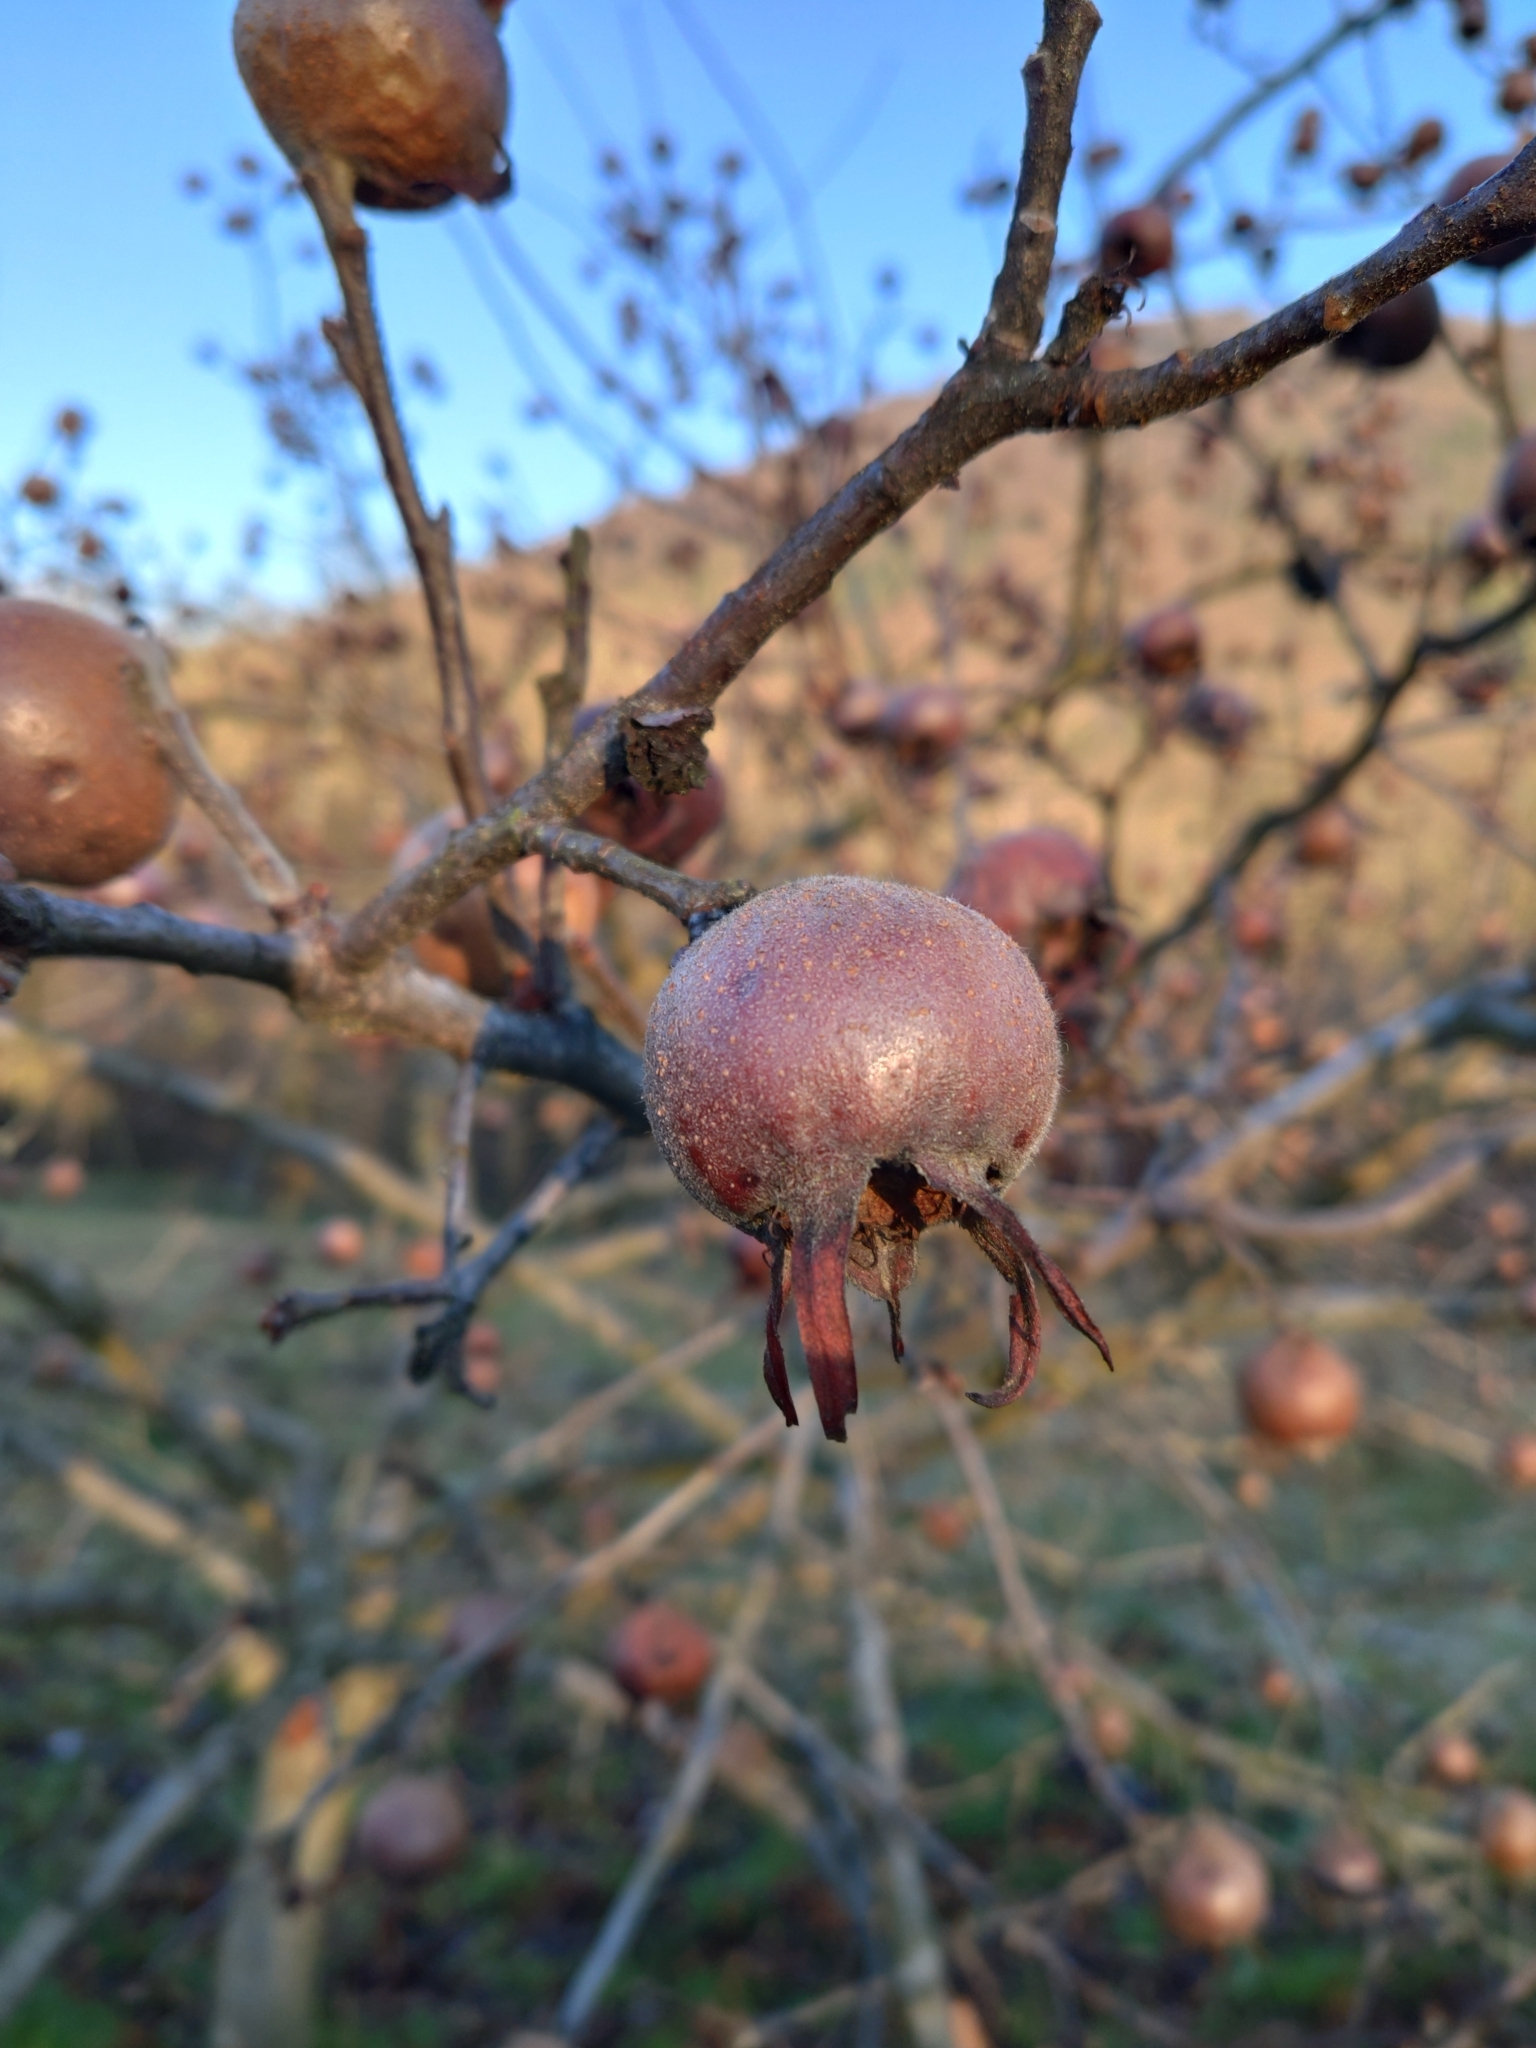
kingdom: Plantae
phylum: Tracheophyta
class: Magnoliopsida
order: Rosales
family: Rosaceae
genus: Mespilus
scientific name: Mespilus germanica
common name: Medlar
